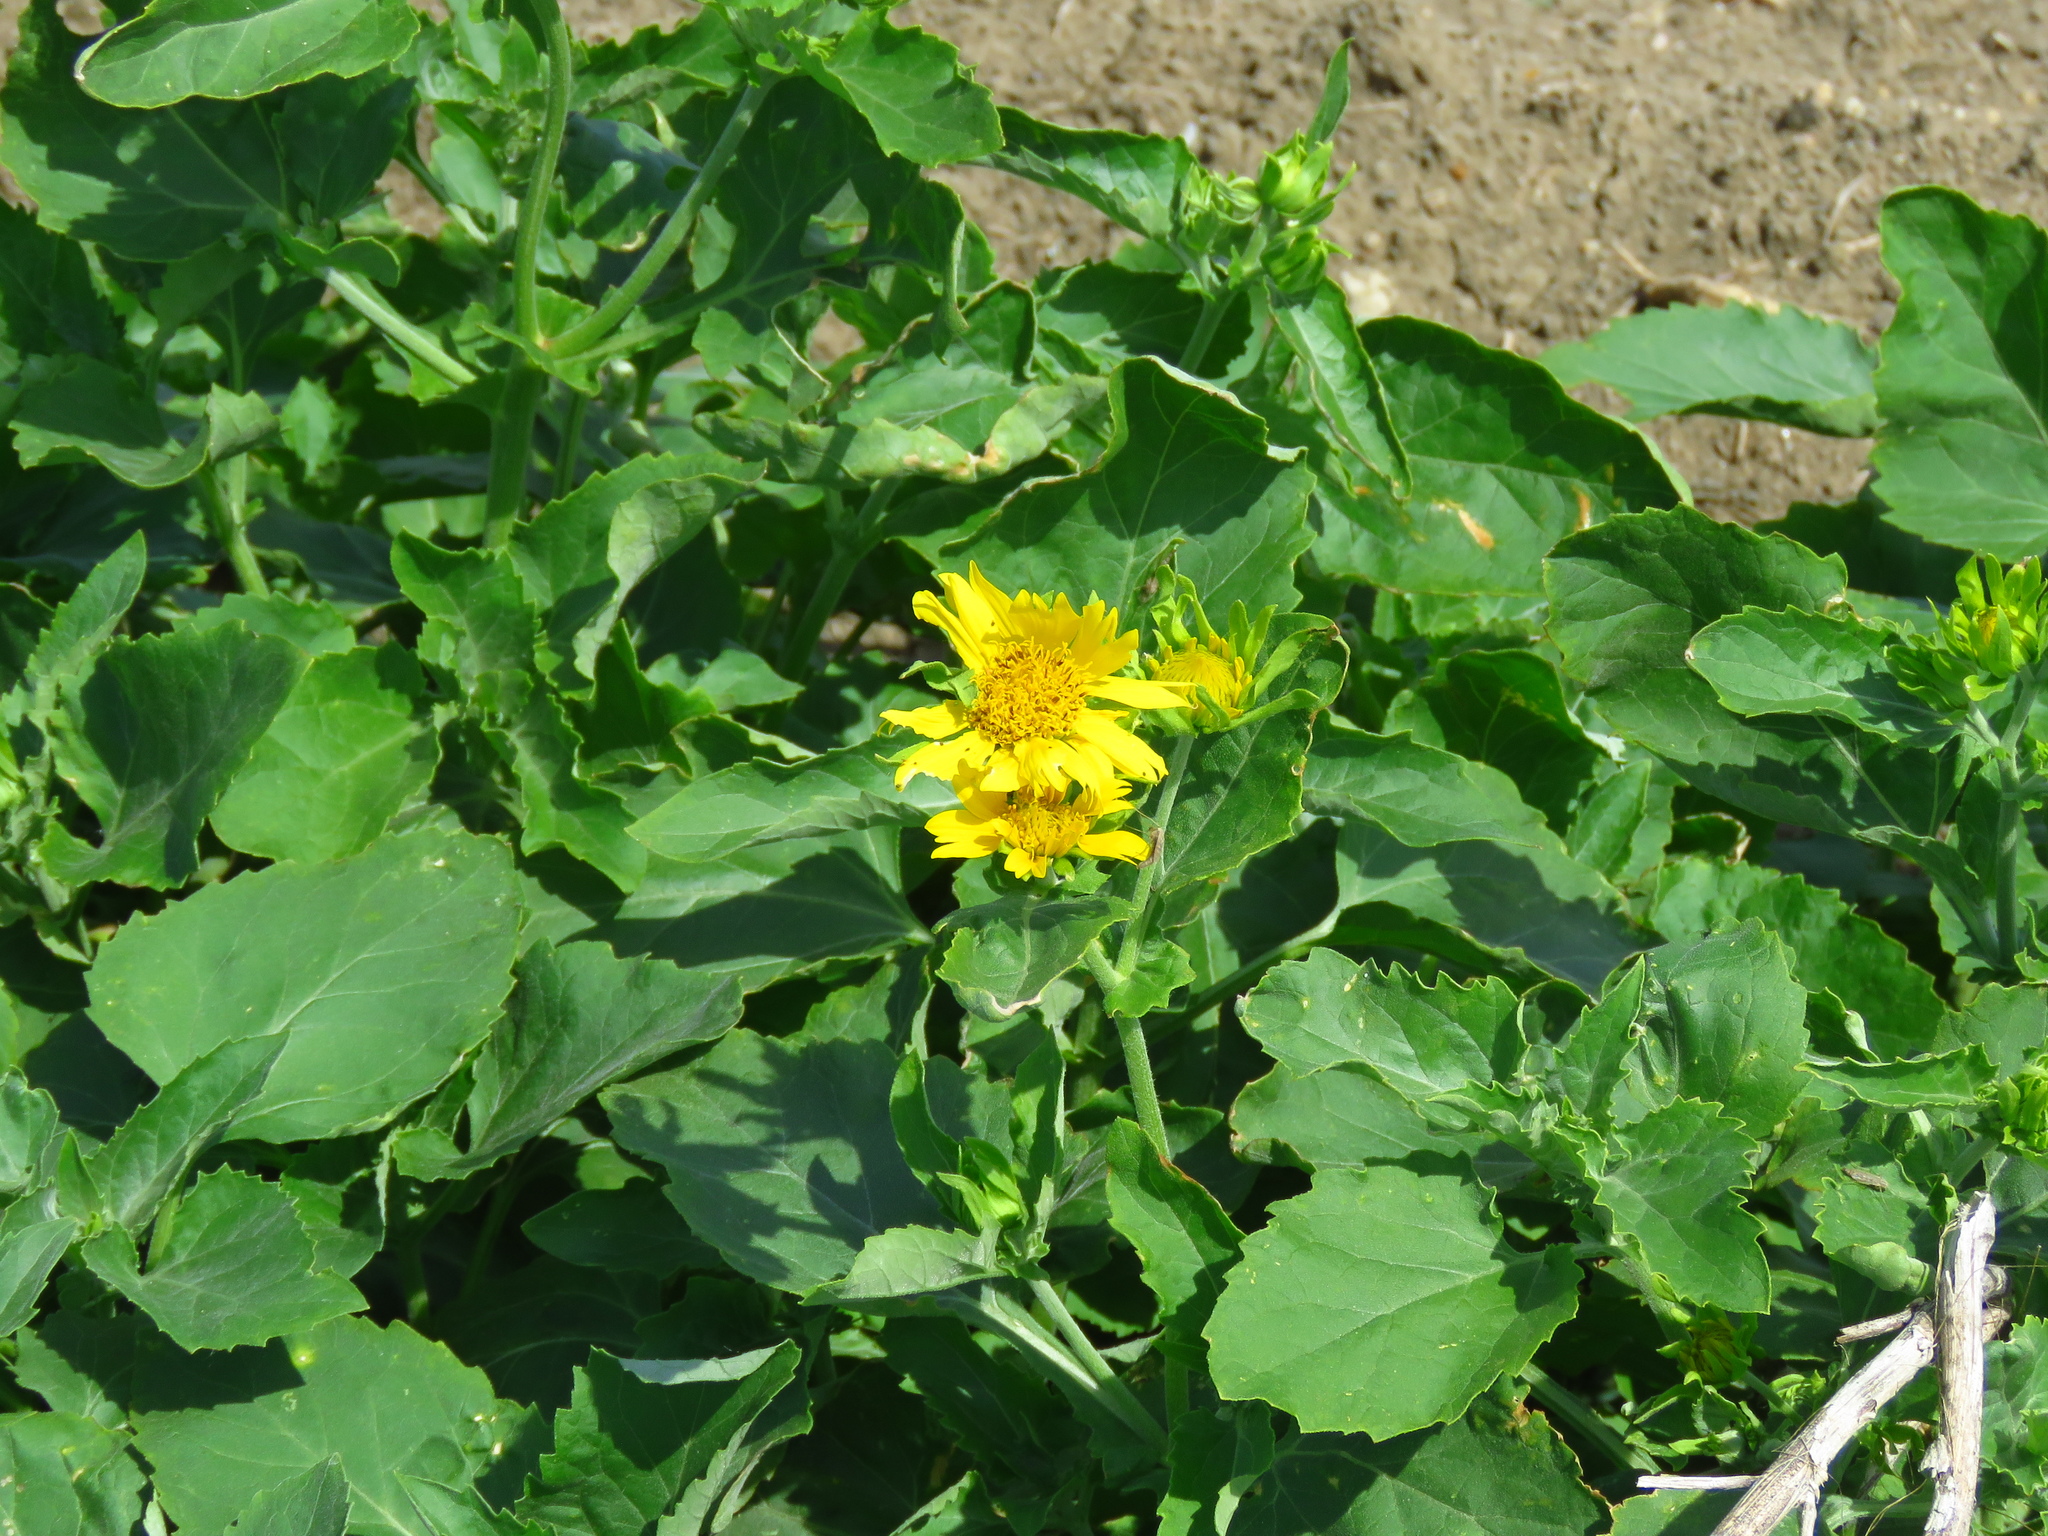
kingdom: Plantae
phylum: Tracheophyta
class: Magnoliopsida
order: Asterales
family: Asteraceae
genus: Verbesina
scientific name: Verbesina encelioides
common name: Golden crownbeard
